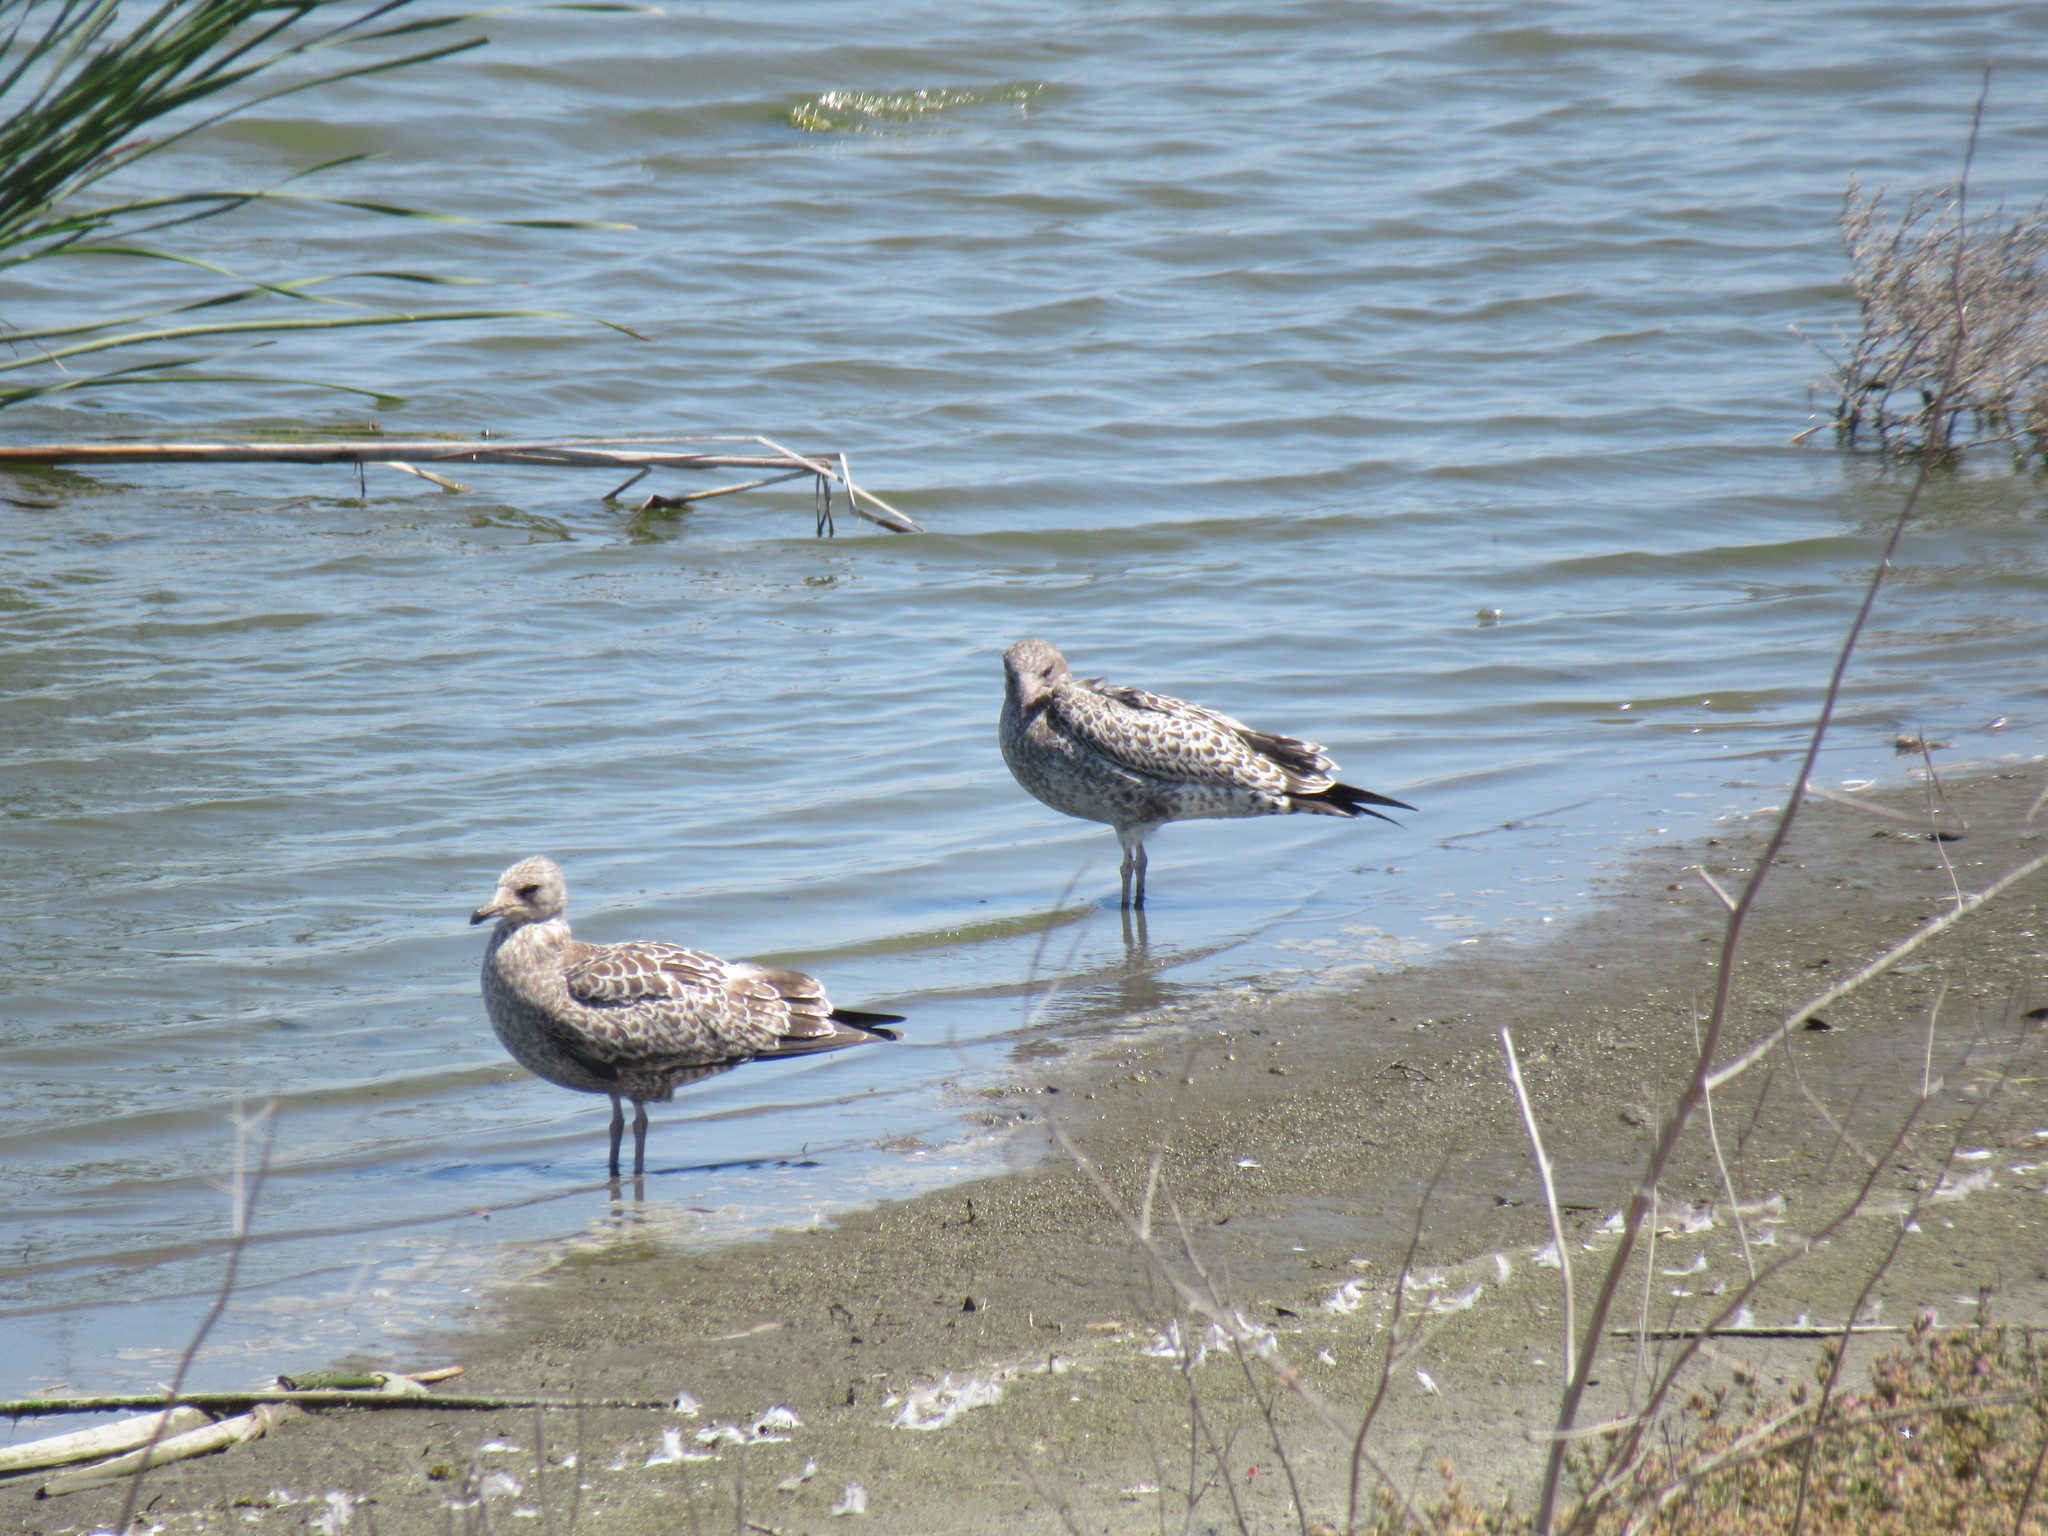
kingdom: Animalia
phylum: Chordata
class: Aves
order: Charadriiformes
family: Laridae
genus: Larus
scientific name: Larus californicus
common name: California gull
